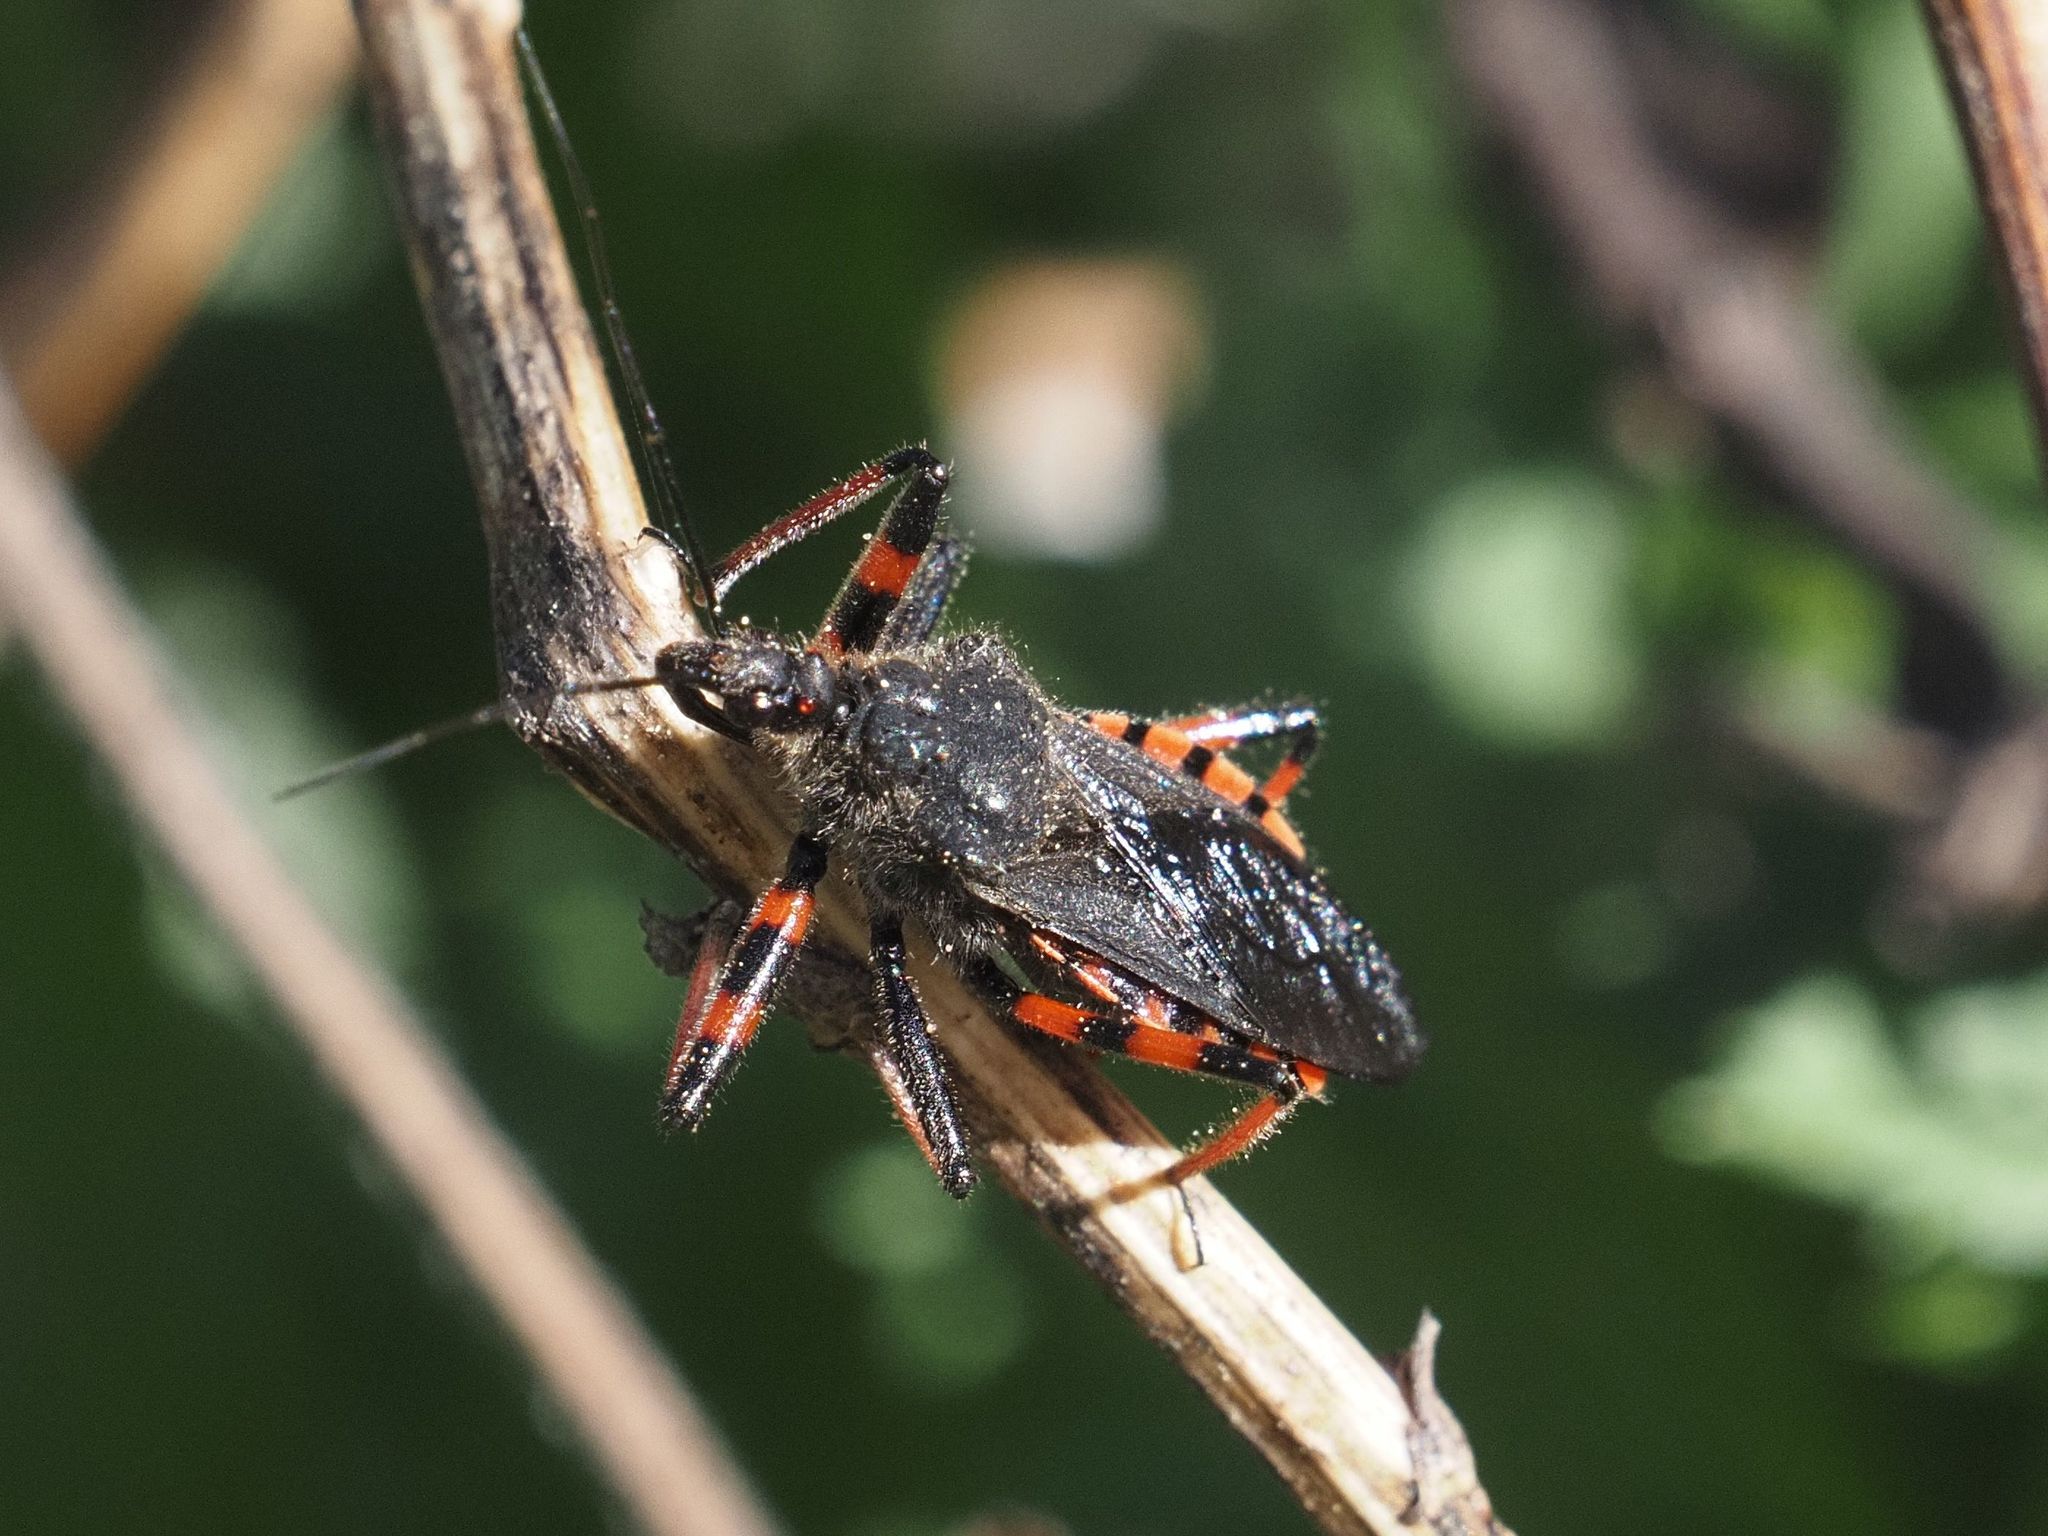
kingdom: Animalia
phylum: Arthropoda
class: Insecta
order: Hemiptera
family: Reduviidae
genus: Rhynocoris
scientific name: Rhynocoris annulatus
